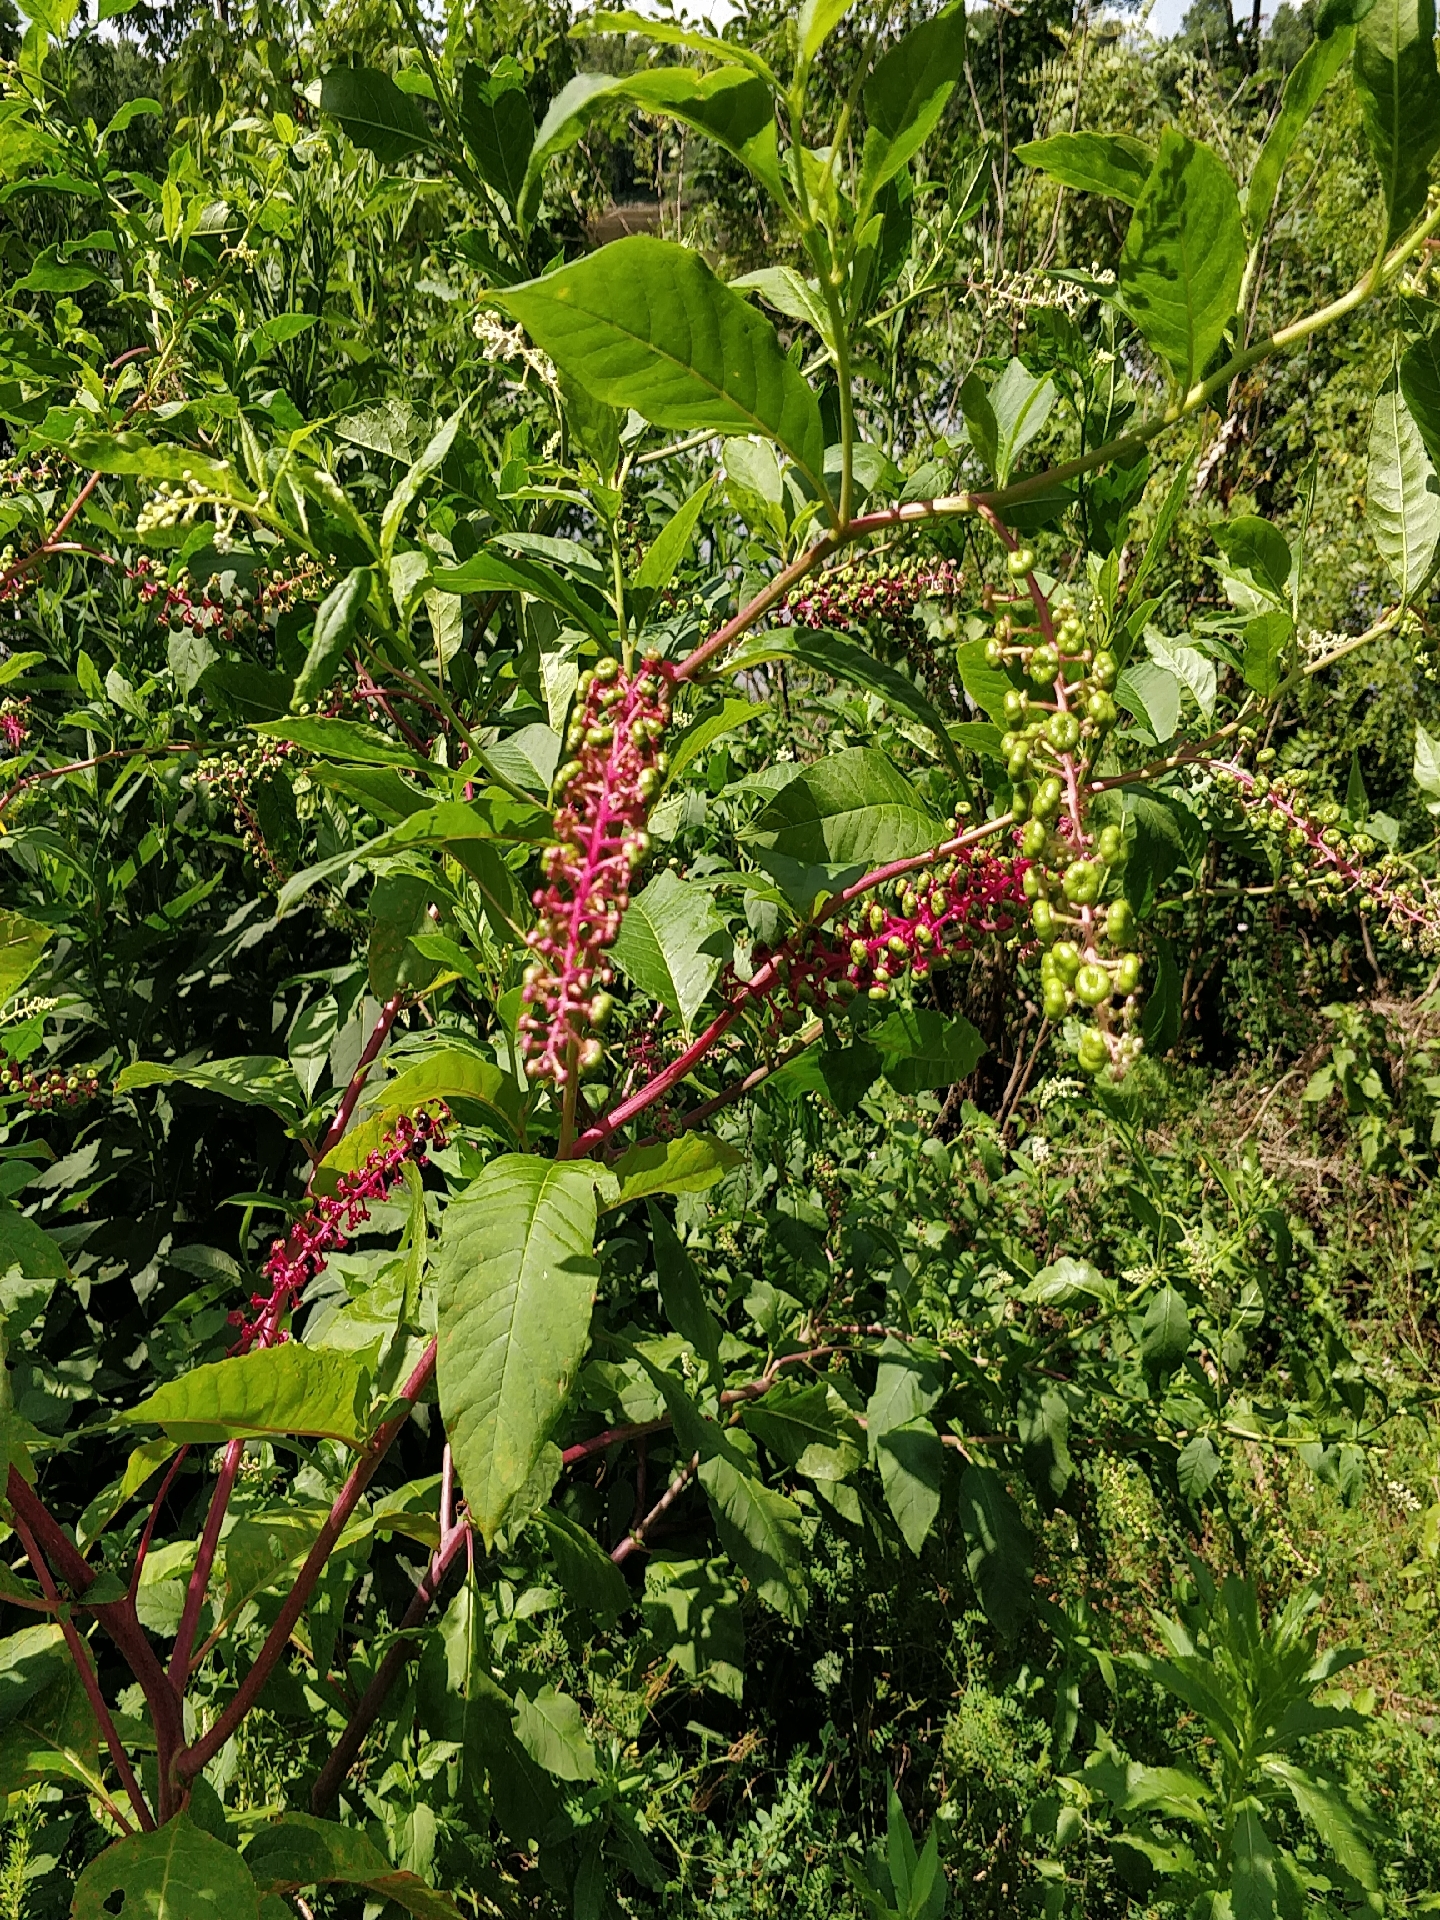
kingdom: Plantae
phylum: Tracheophyta
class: Magnoliopsida
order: Caryophyllales
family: Phytolaccaceae
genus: Phytolacca
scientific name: Phytolacca americana
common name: American pokeweed
